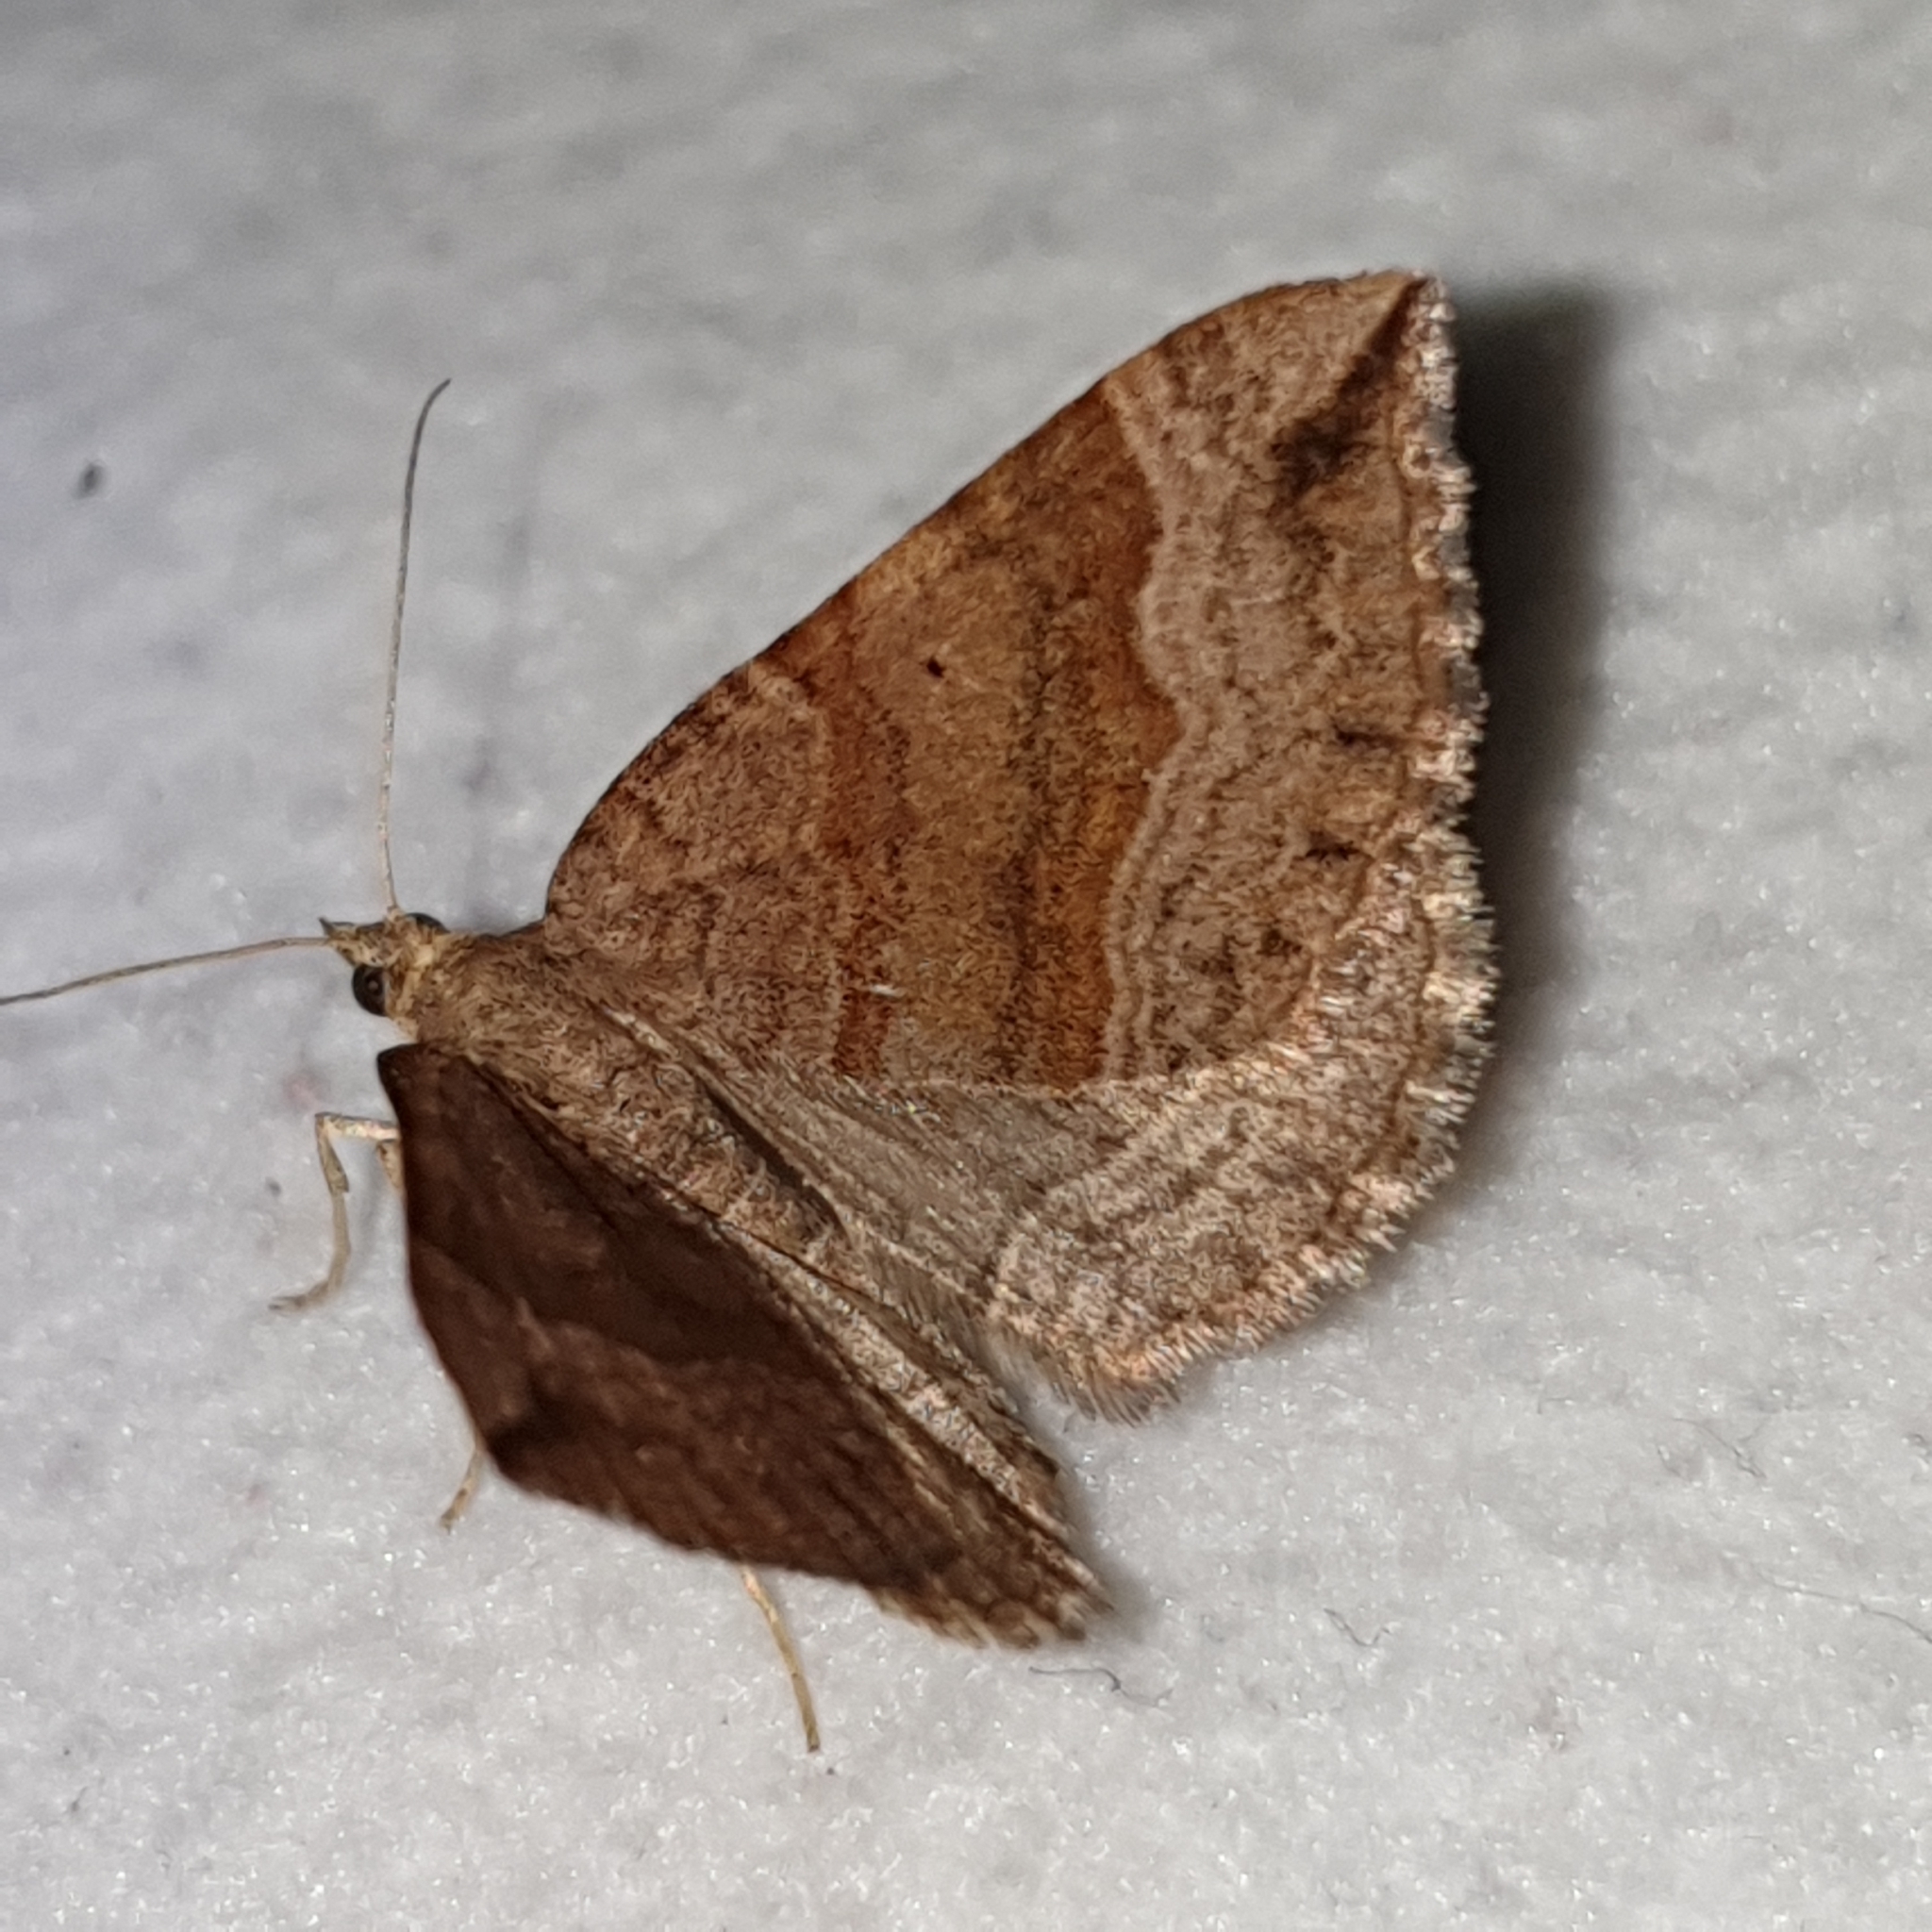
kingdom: Animalia
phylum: Arthropoda
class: Insecta
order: Lepidoptera
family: Geometridae
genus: Scotopteryx
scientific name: Scotopteryx chenopodiata
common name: Shaded broad-bar
